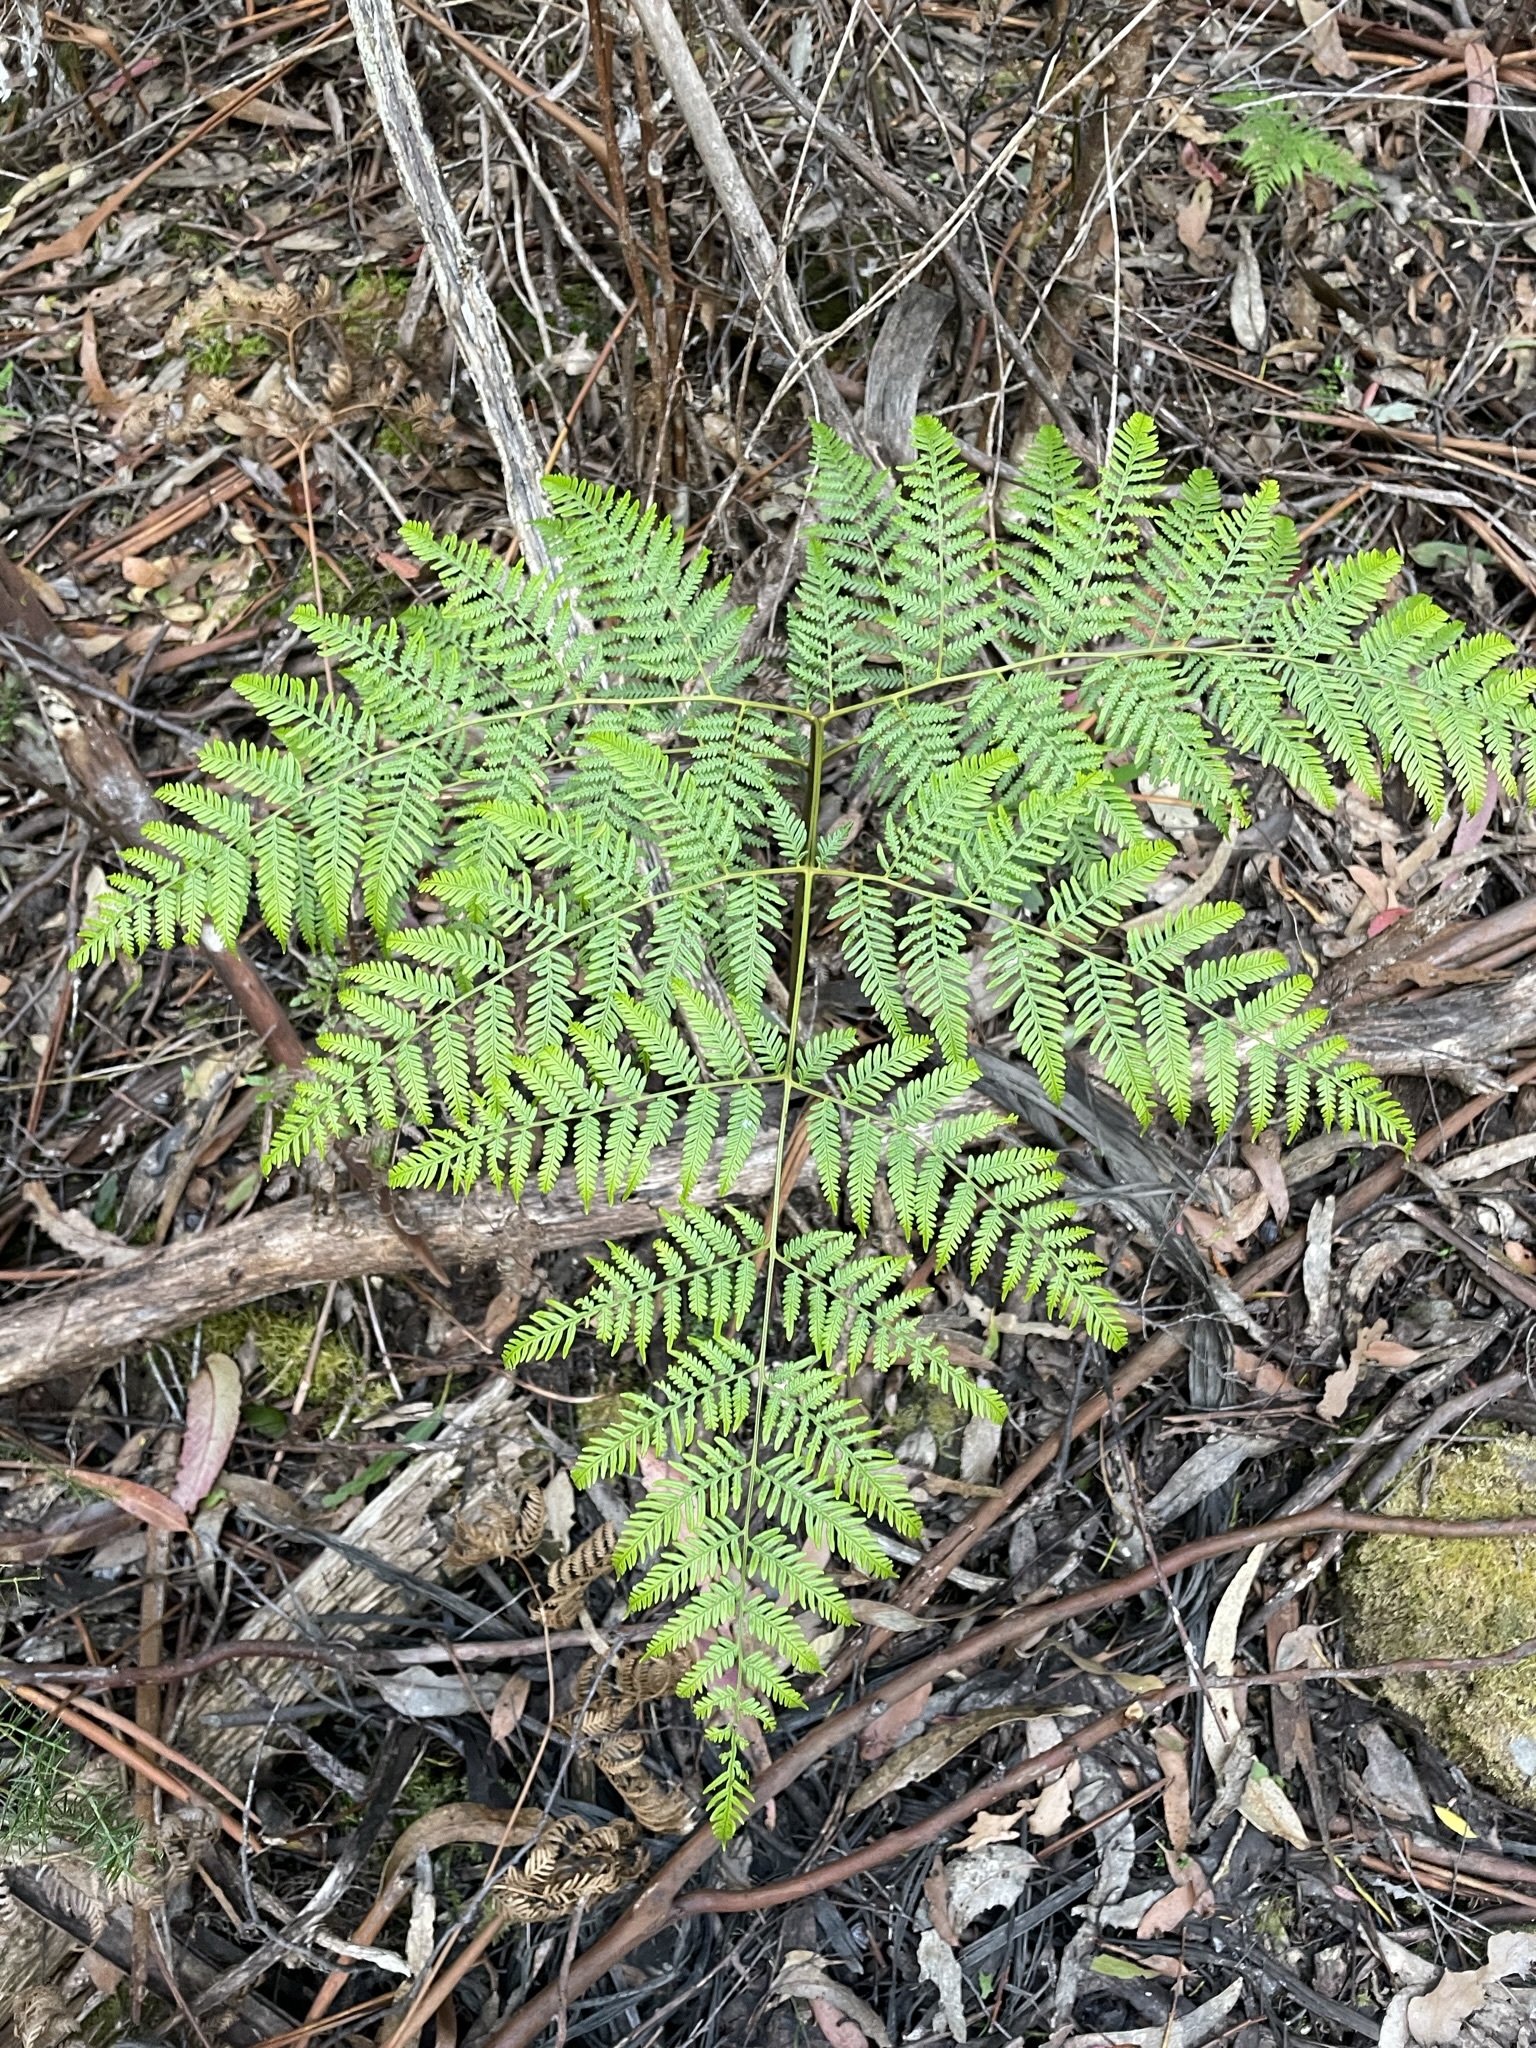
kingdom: Plantae
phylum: Tracheophyta
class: Polypodiopsida
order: Polypodiales
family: Dennstaedtiaceae
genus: Pteridium
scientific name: Pteridium esculentum
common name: Bracken fern
